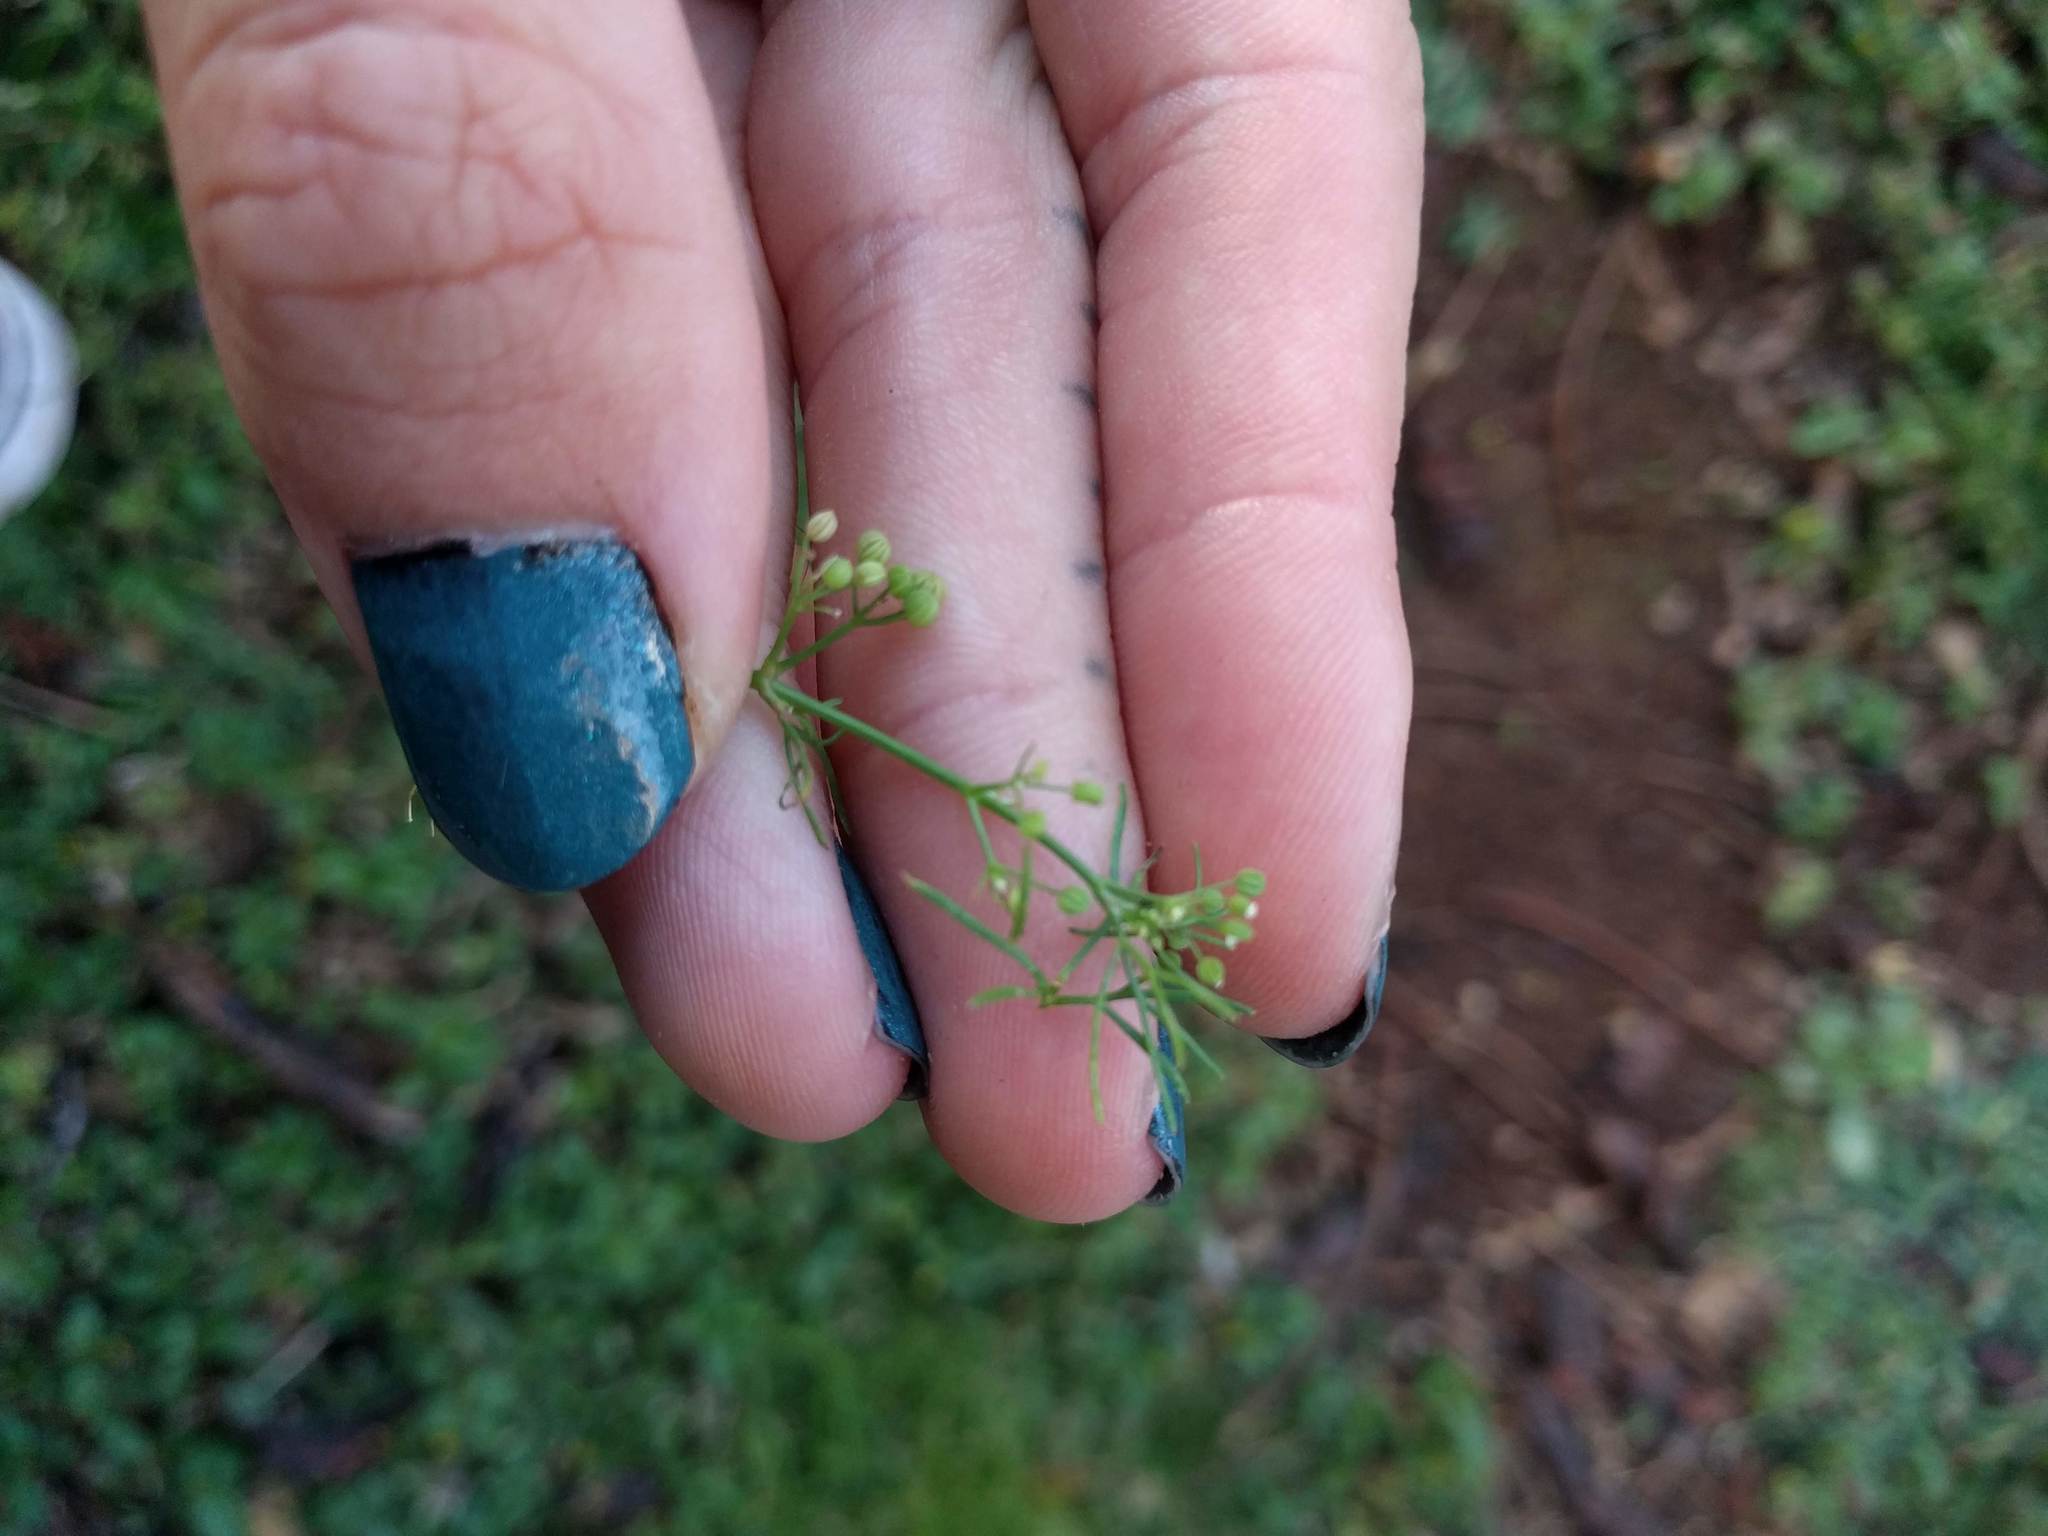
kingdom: Plantae
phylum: Tracheophyta
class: Magnoliopsida
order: Apiales
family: Apiaceae
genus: Cyclospermum
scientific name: Cyclospermum leptophyllum
